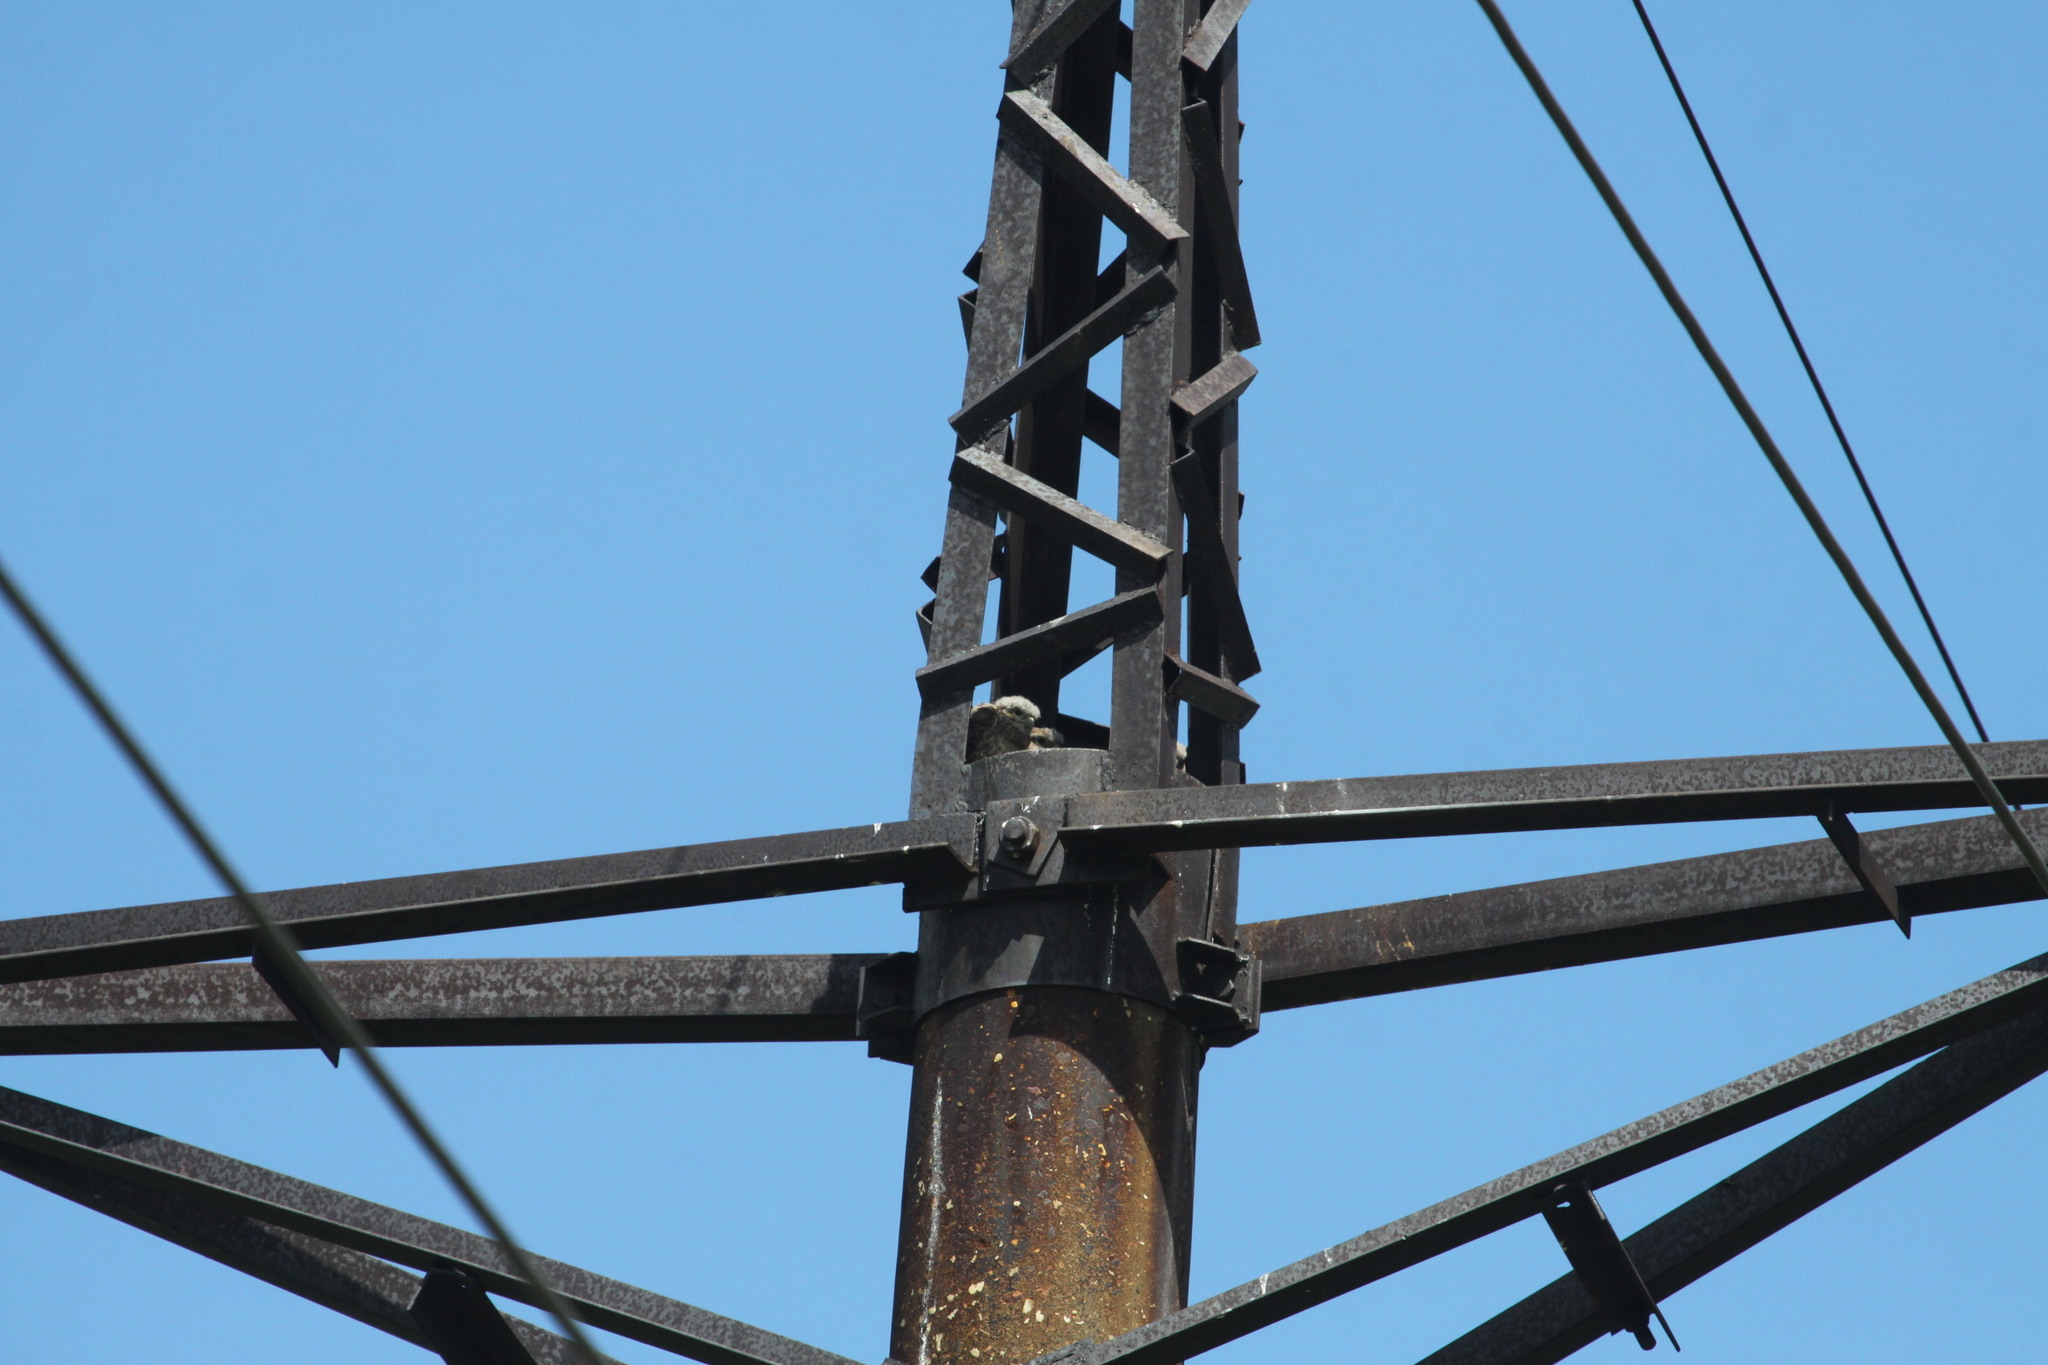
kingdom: Animalia
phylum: Chordata
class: Aves
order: Falconiformes
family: Falconidae
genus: Falco
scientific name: Falco tinnunculus
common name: Common kestrel
